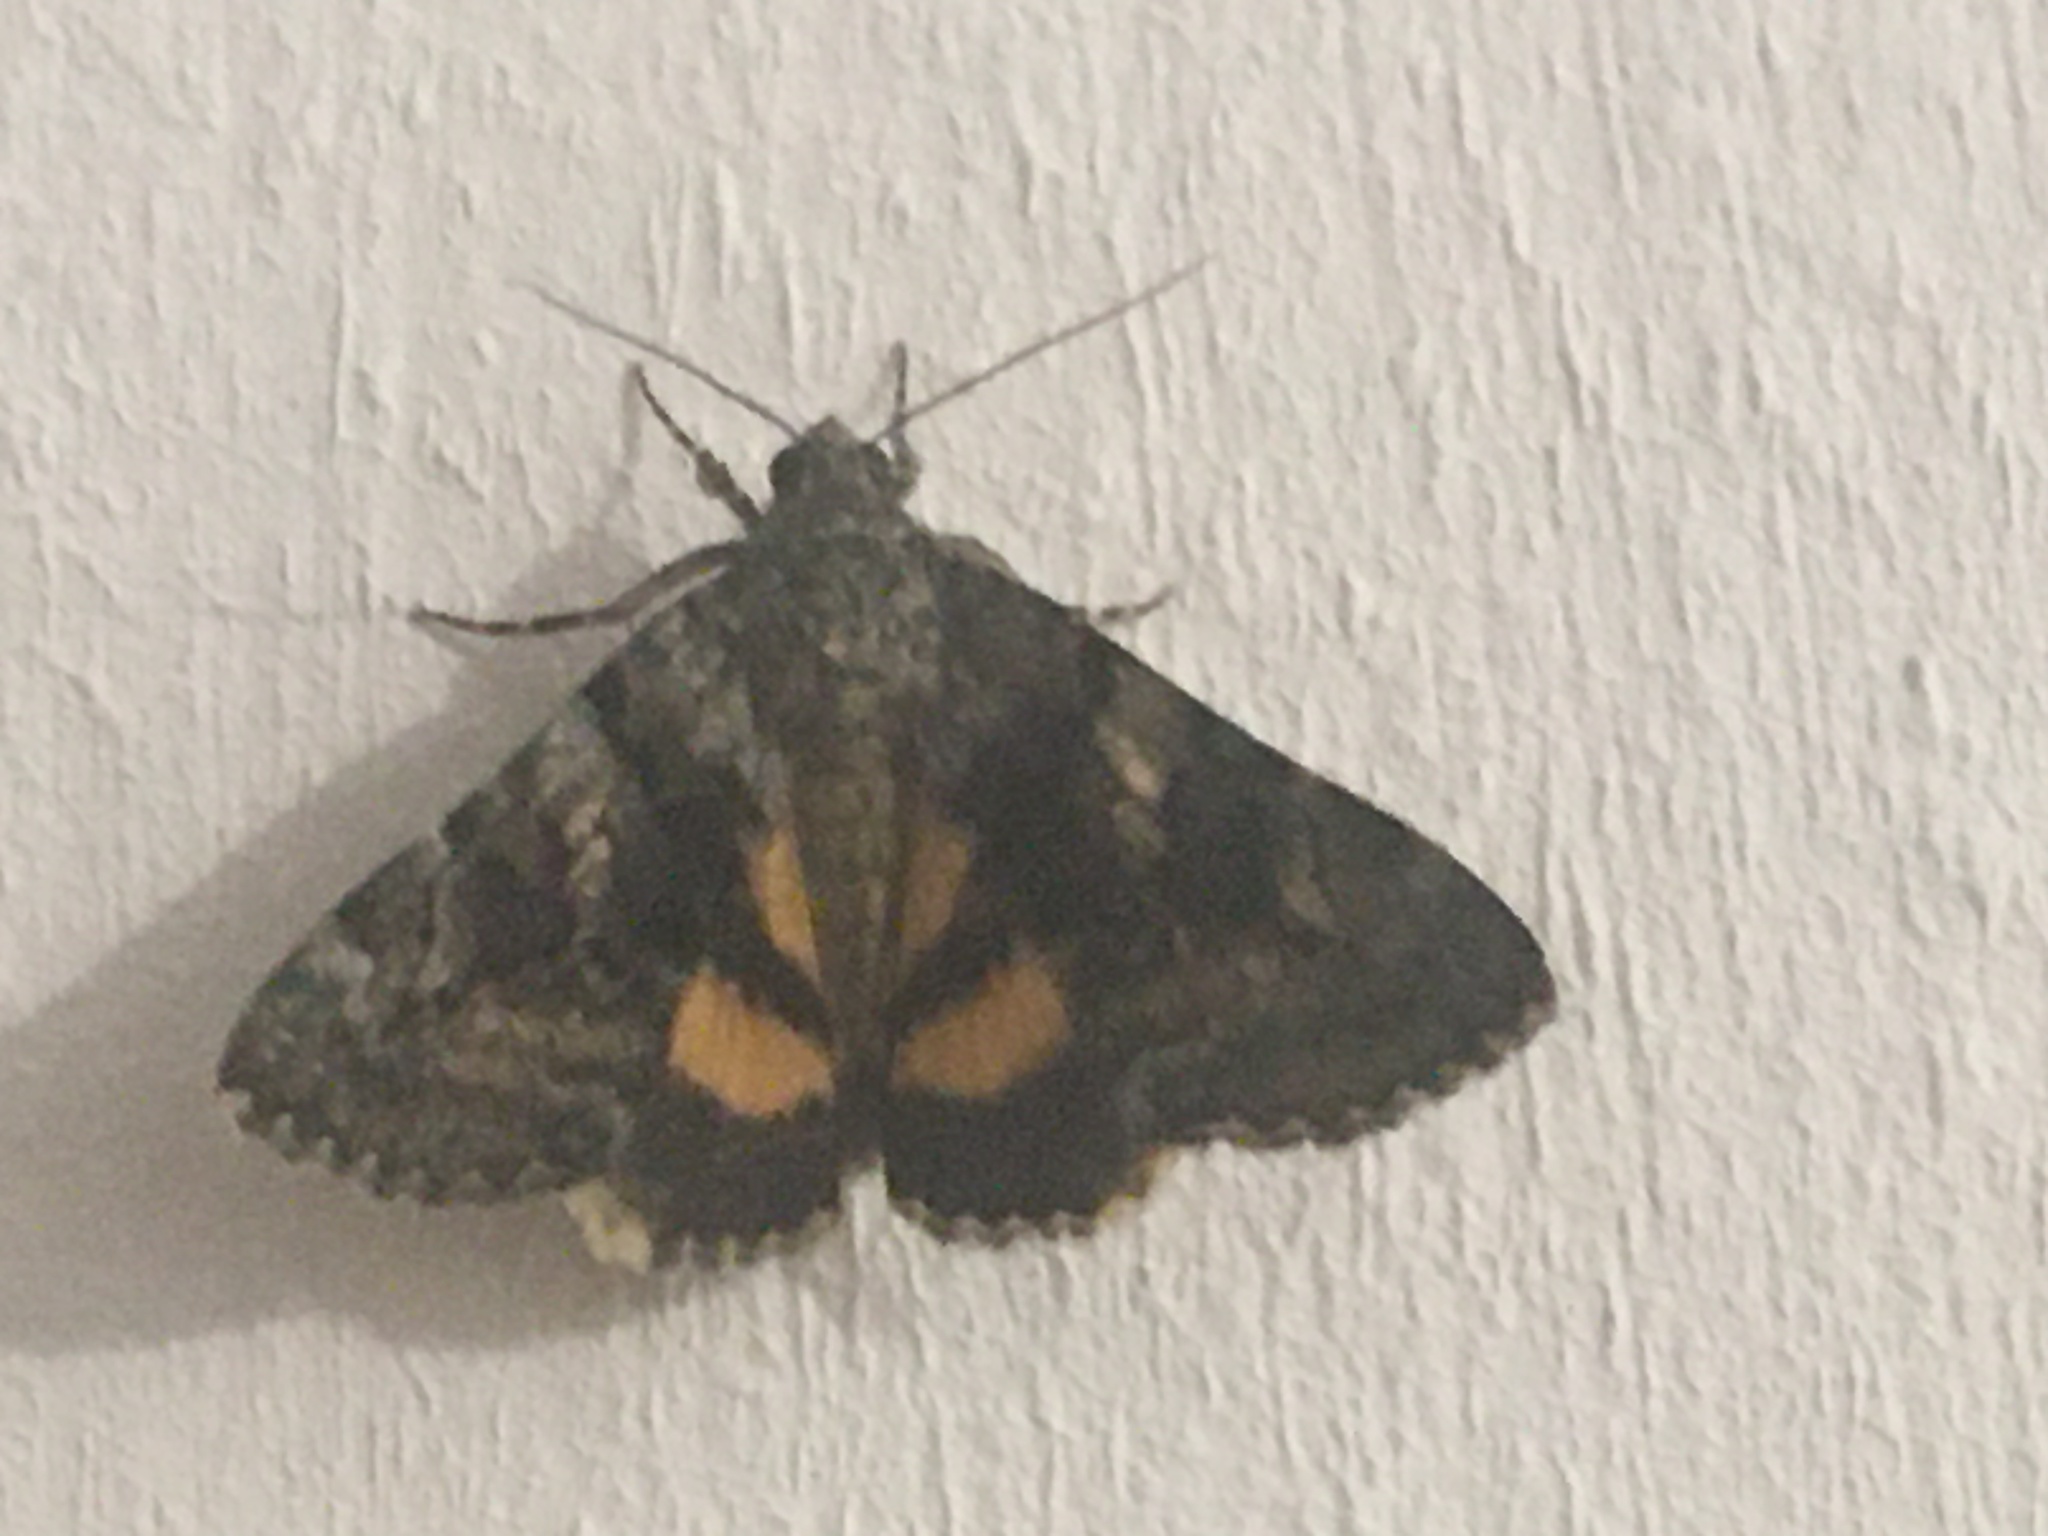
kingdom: Animalia
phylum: Arthropoda
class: Insecta
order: Lepidoptera
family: Erebidae
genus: Catocala
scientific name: Catocala nymphagoga
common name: Oak yellow underwing
